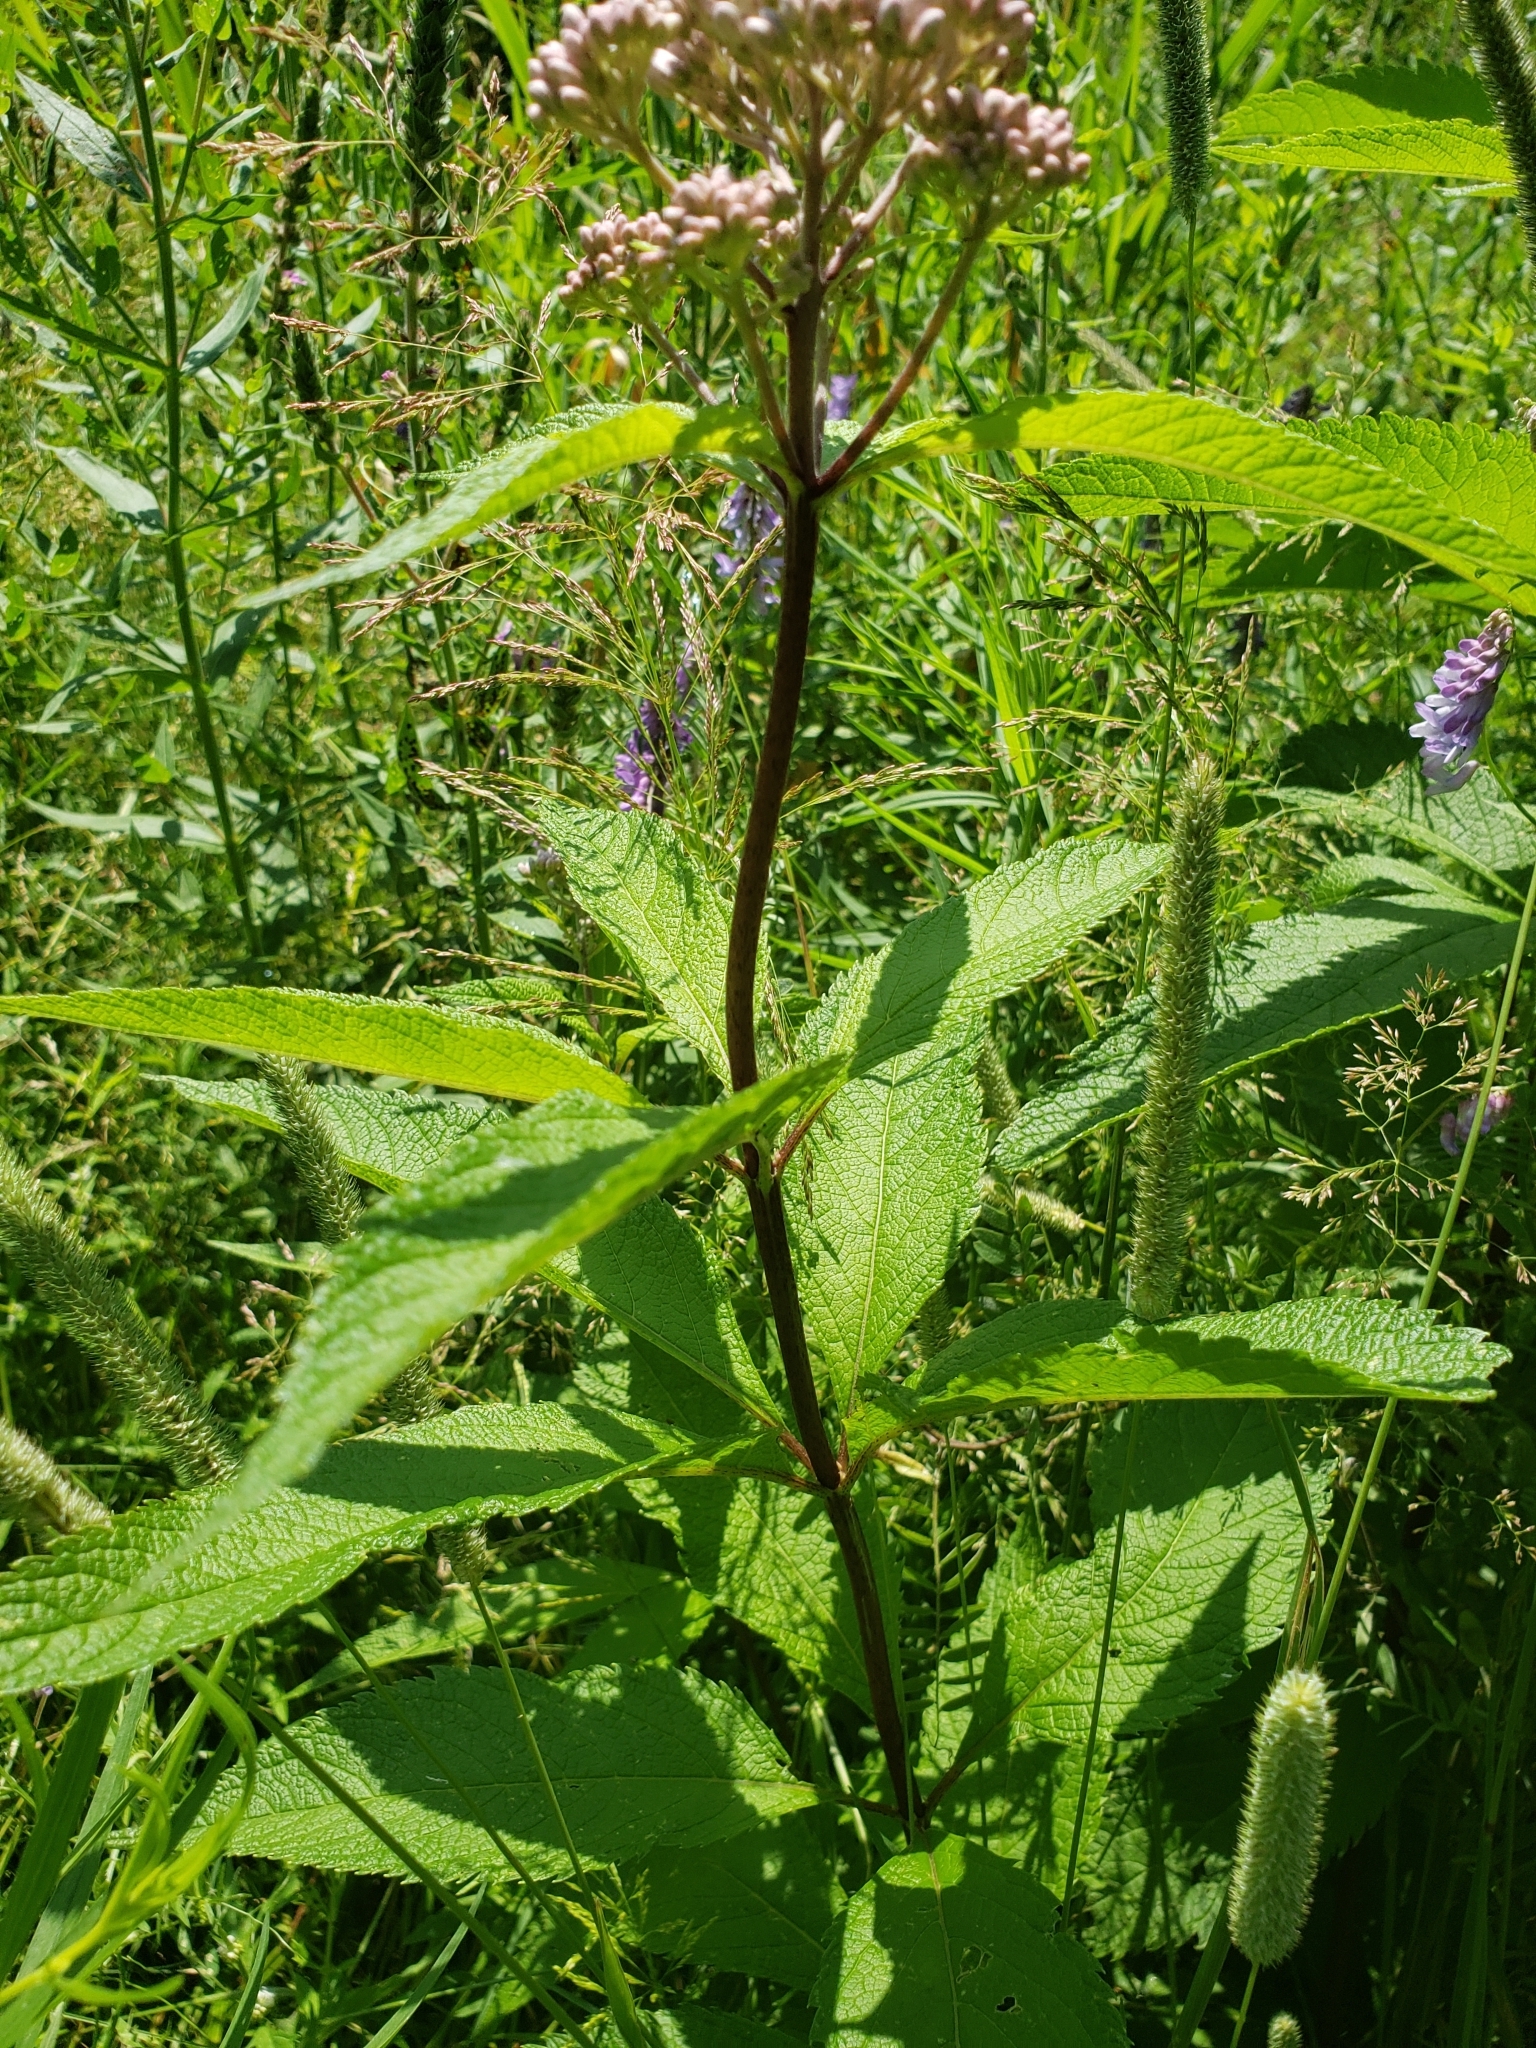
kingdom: Plantae
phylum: Tracheophyta
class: Magnoliopsida
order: Asterales
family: Asteraceae
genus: Eutrochium
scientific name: Eutrochium maculatum
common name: Spotted joe pye weed
